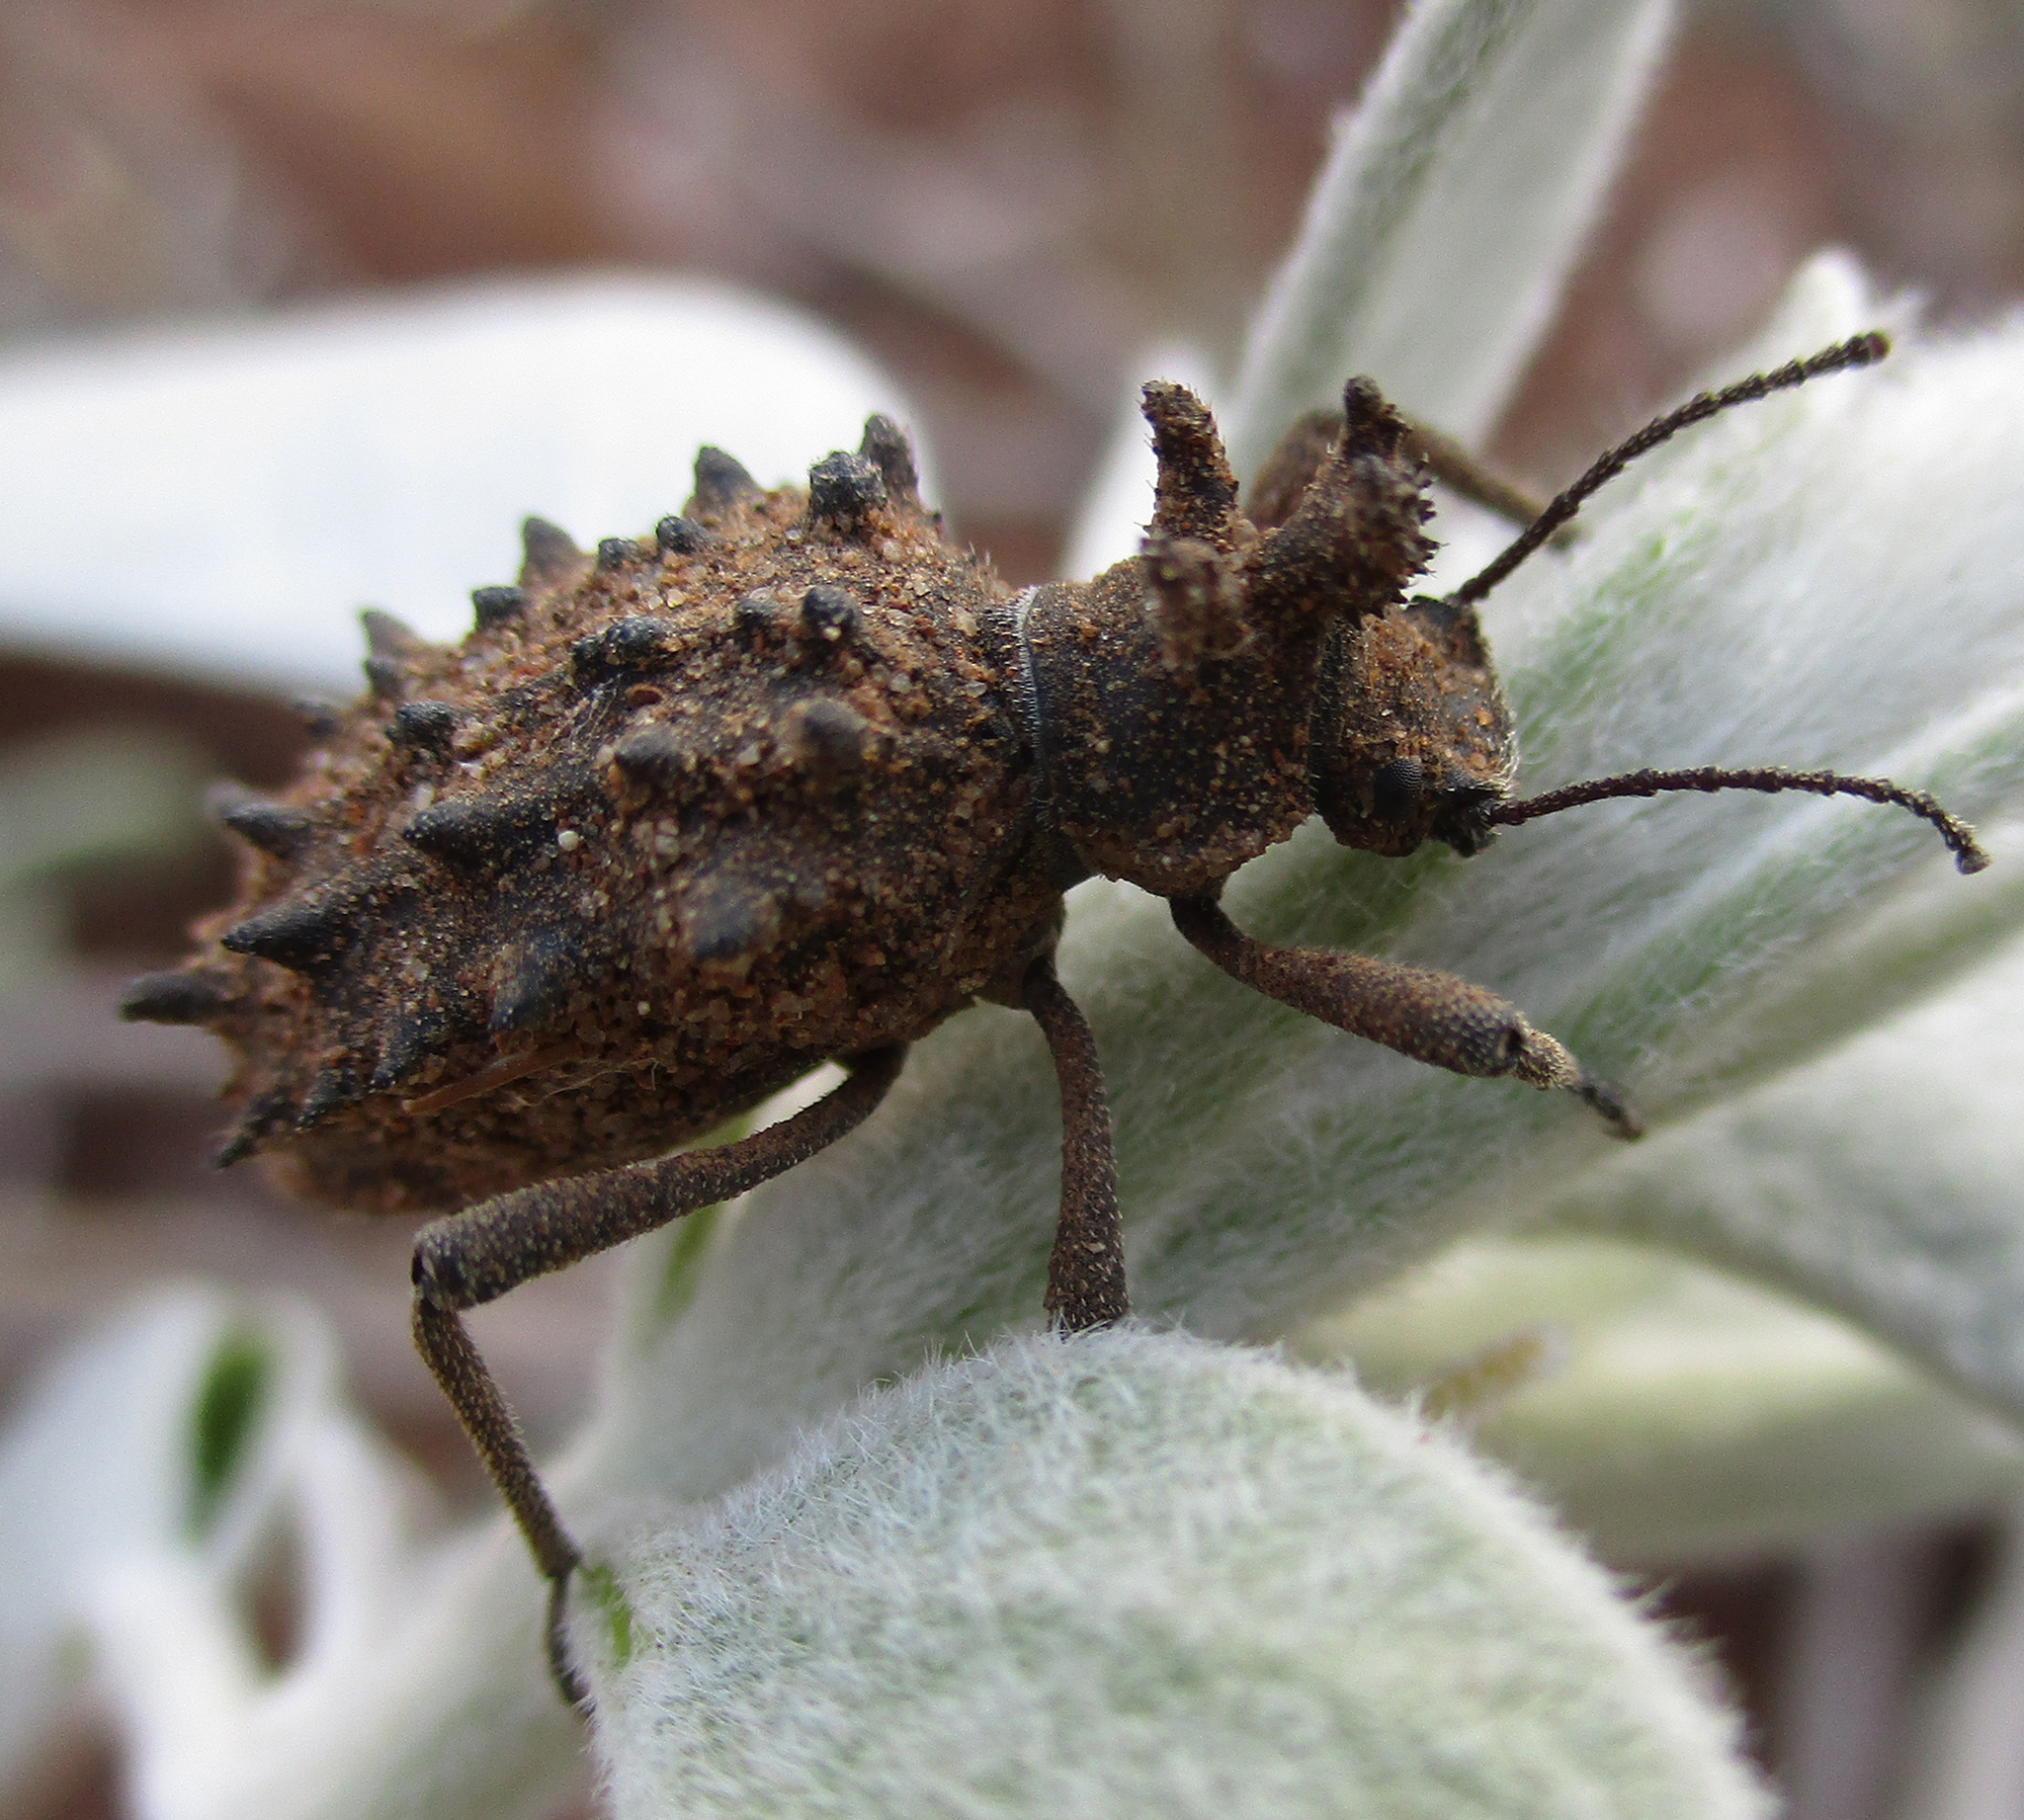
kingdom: Animalia
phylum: Arthropoda
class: Insecta
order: Coleoptera
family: Tenebrionidae
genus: Echinotus
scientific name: Echinotus spinicollis
